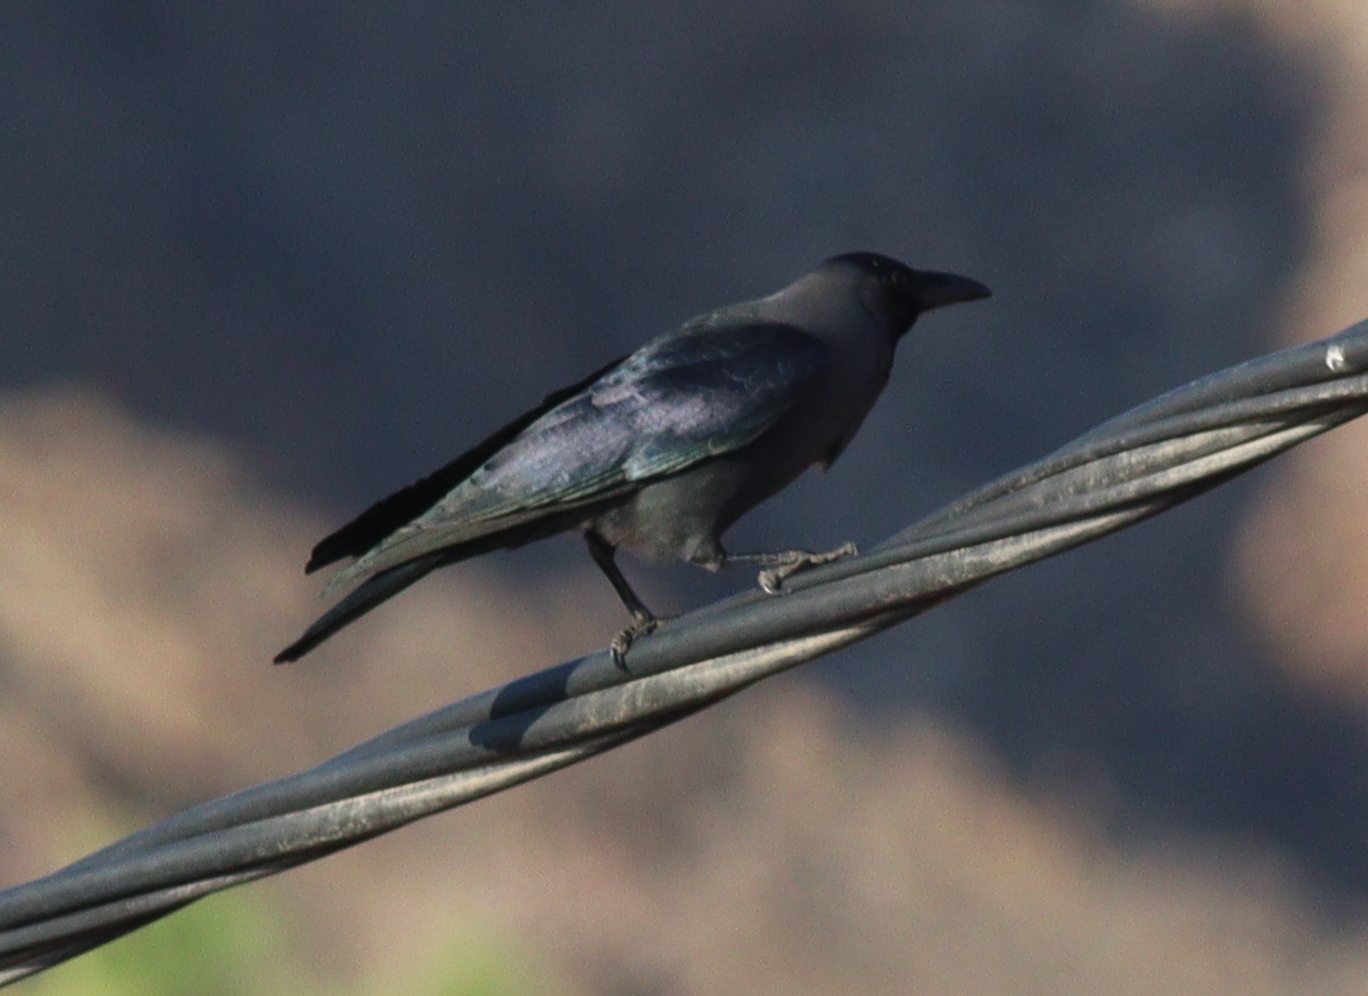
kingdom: Animalia
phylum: Chordata
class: Aves
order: Passeriformes
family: Corvidae
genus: Corvus
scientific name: Corvus splendens
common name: House crow
